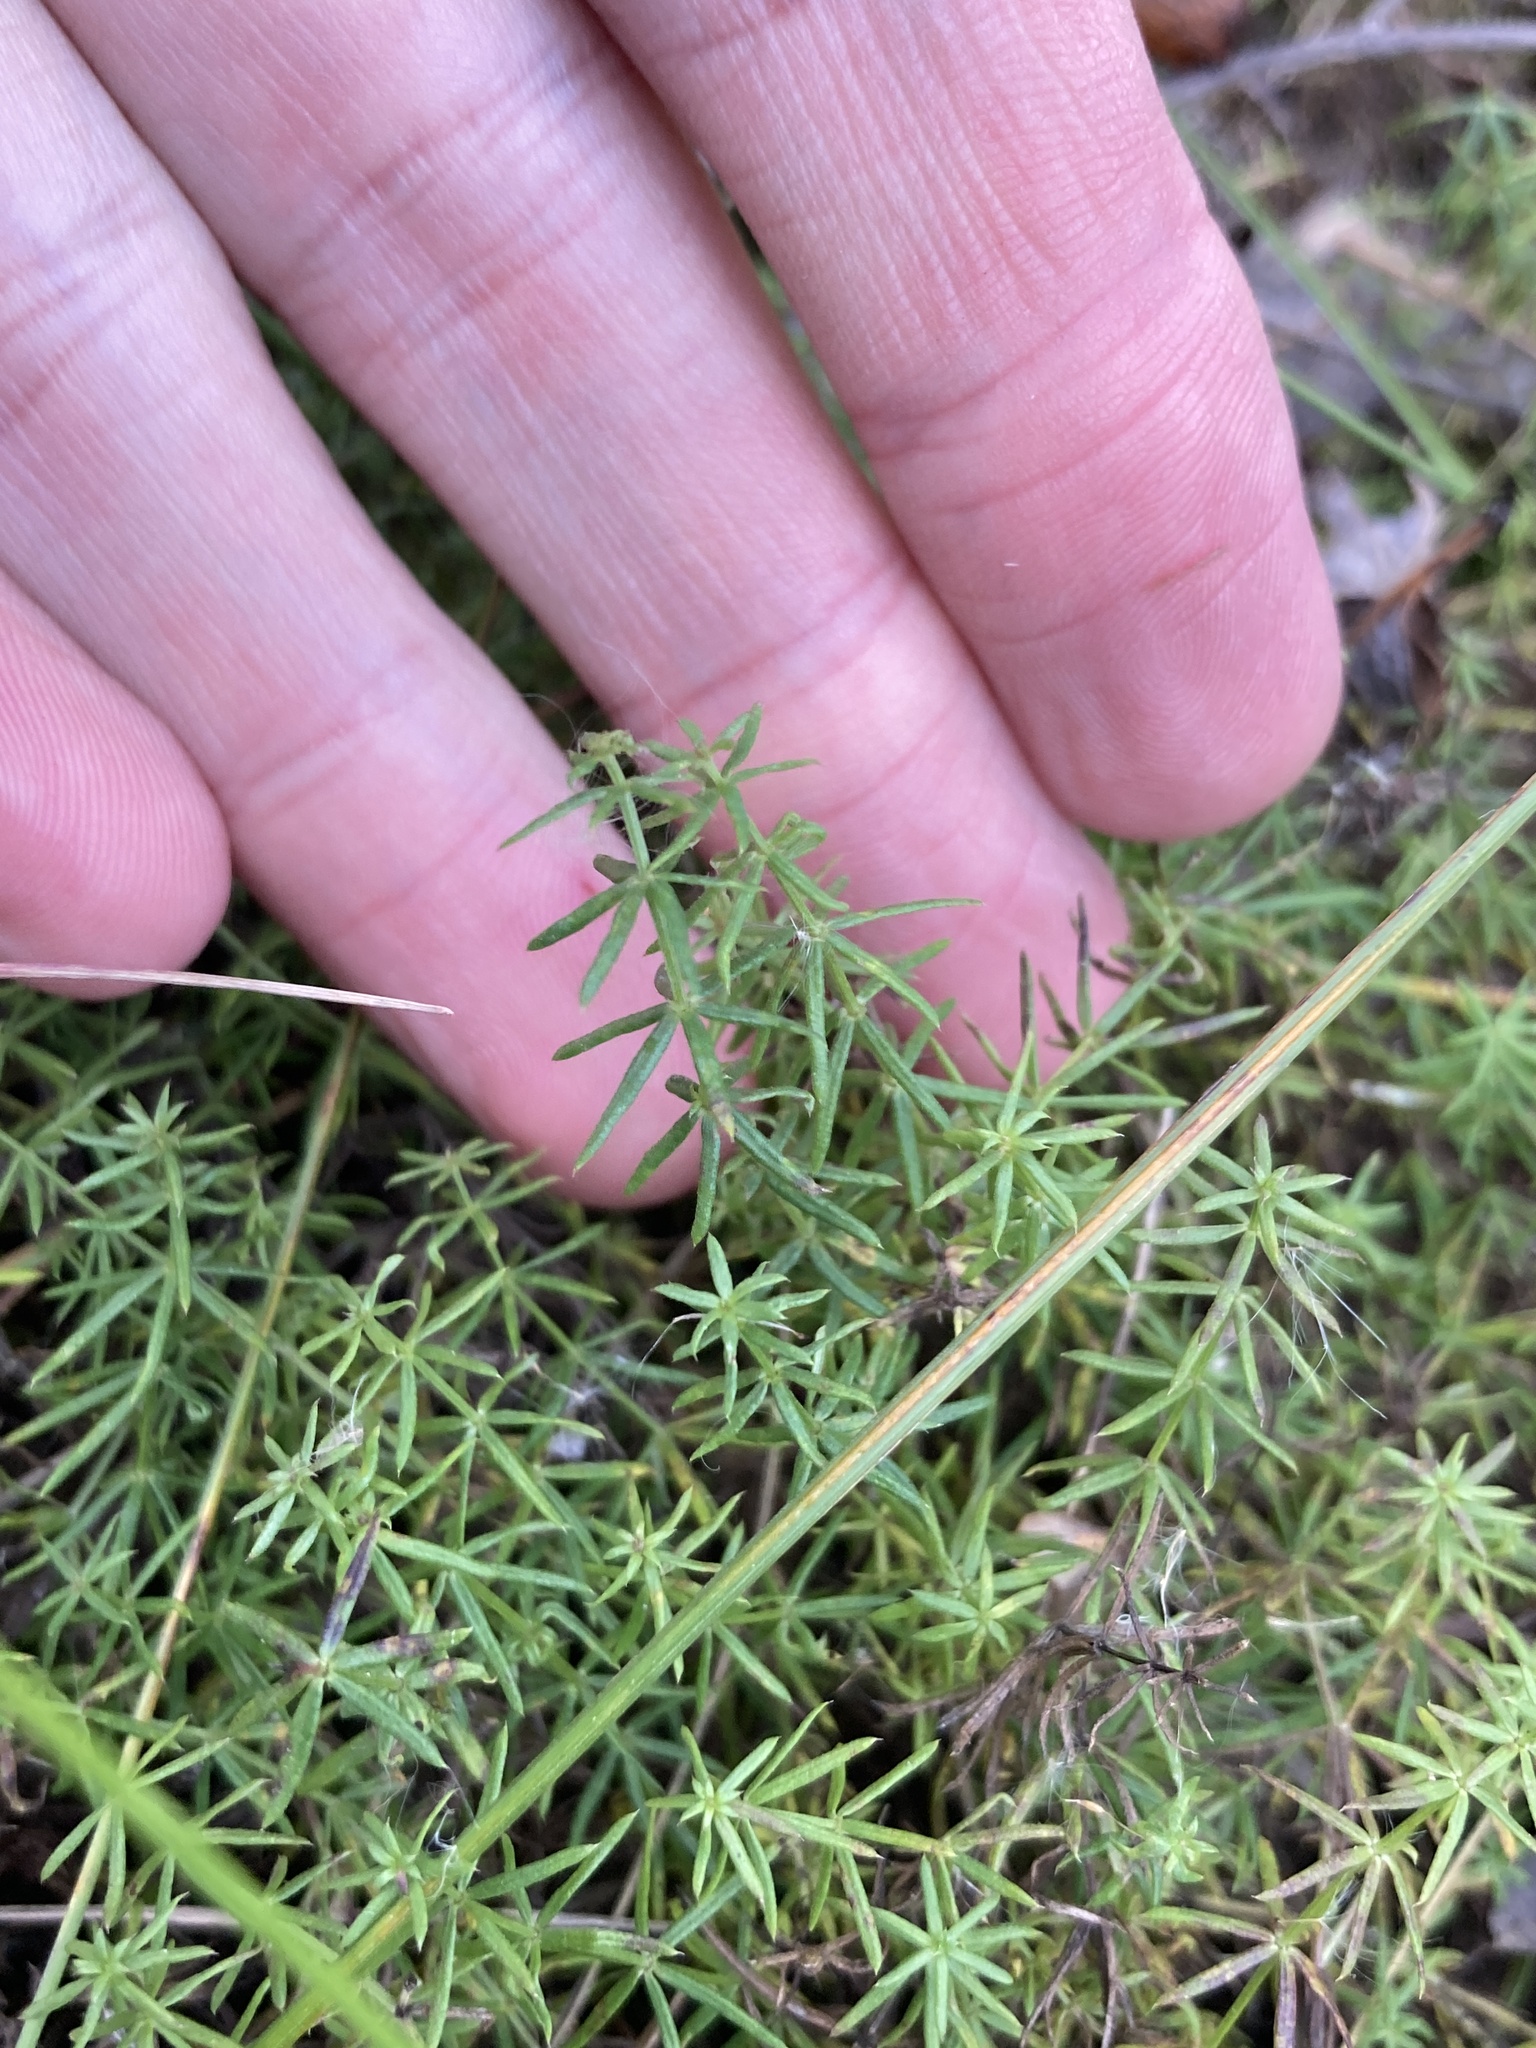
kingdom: Plantae
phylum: Tracheophyta
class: Magnoliopsida
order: Gentianales
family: Rubiaceae
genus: Galium
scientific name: Galium verum
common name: Lady's bedstraw
